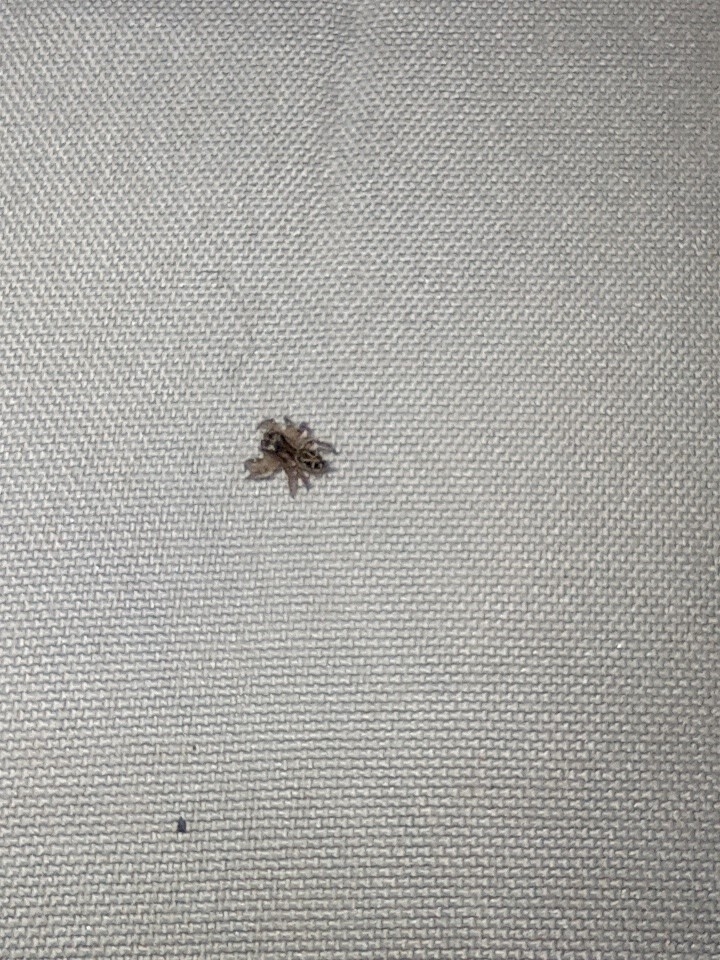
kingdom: Animalia
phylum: Arthropoda
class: Arachnida
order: Araneae
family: Salticidae
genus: Aphirape
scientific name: Aphirape
